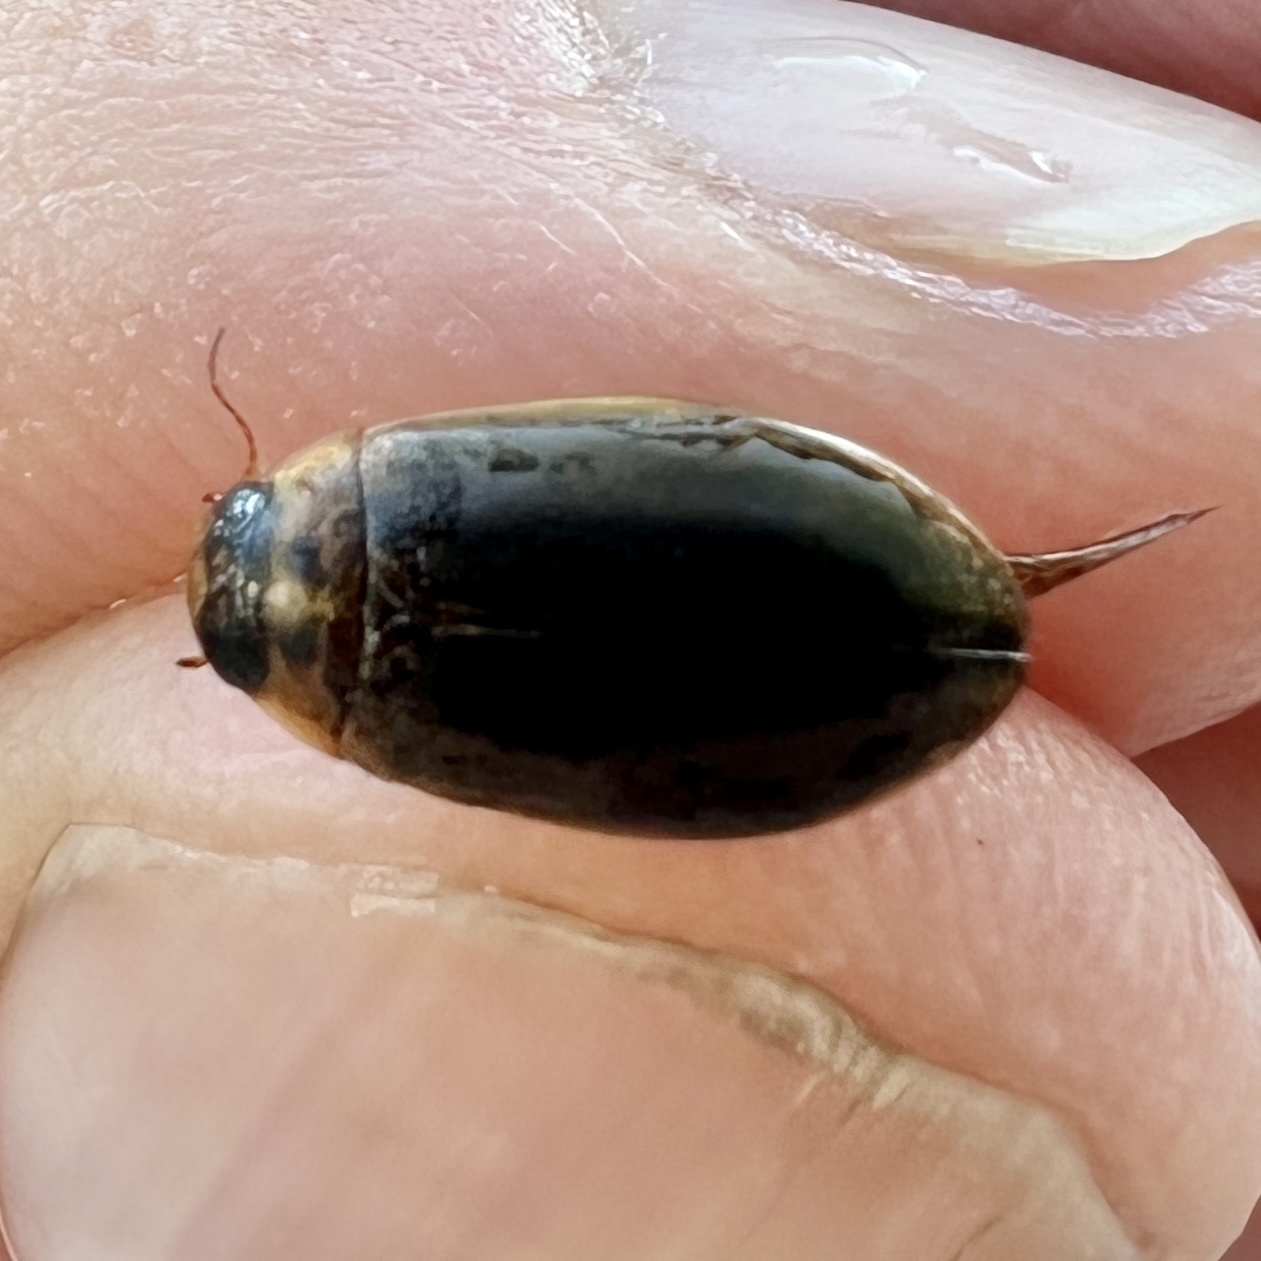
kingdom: Animalia
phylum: Arthropoda
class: Insecta
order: Coleoptera
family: Dytiscidae
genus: Rhantus
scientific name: Rhantus binotatus
